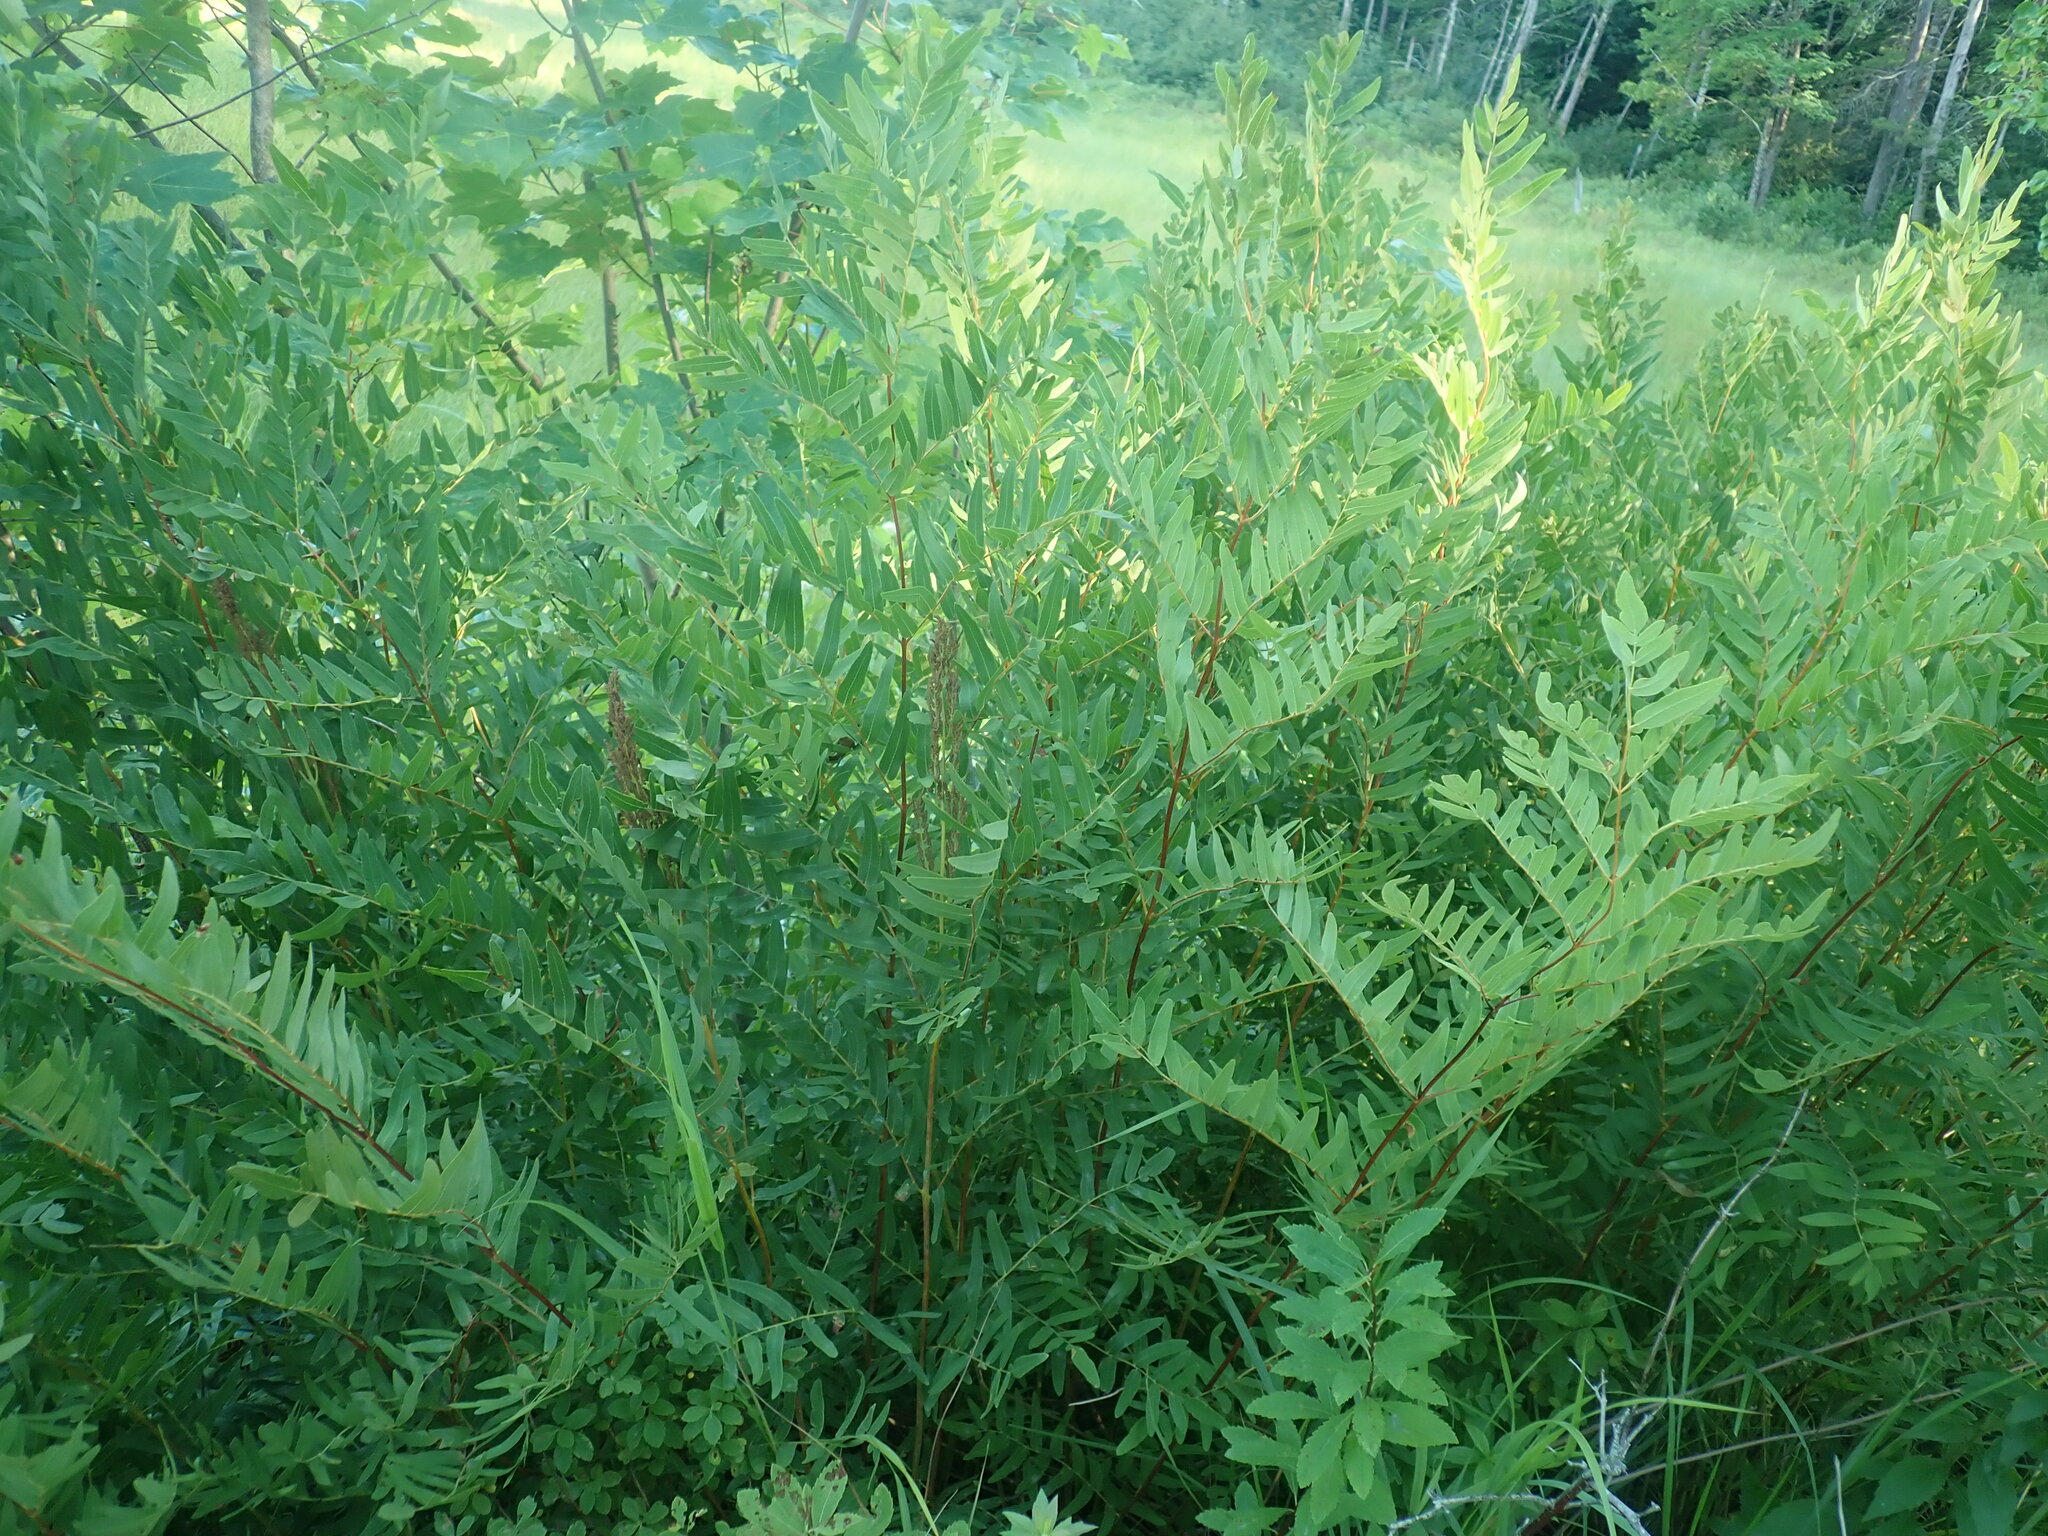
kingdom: Plantae
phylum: Tracheophyta
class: Polypodiopsida
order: Osmundales
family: Osmundaceae
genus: Osmunda
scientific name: Osmunda spectabilis
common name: American royal fern
